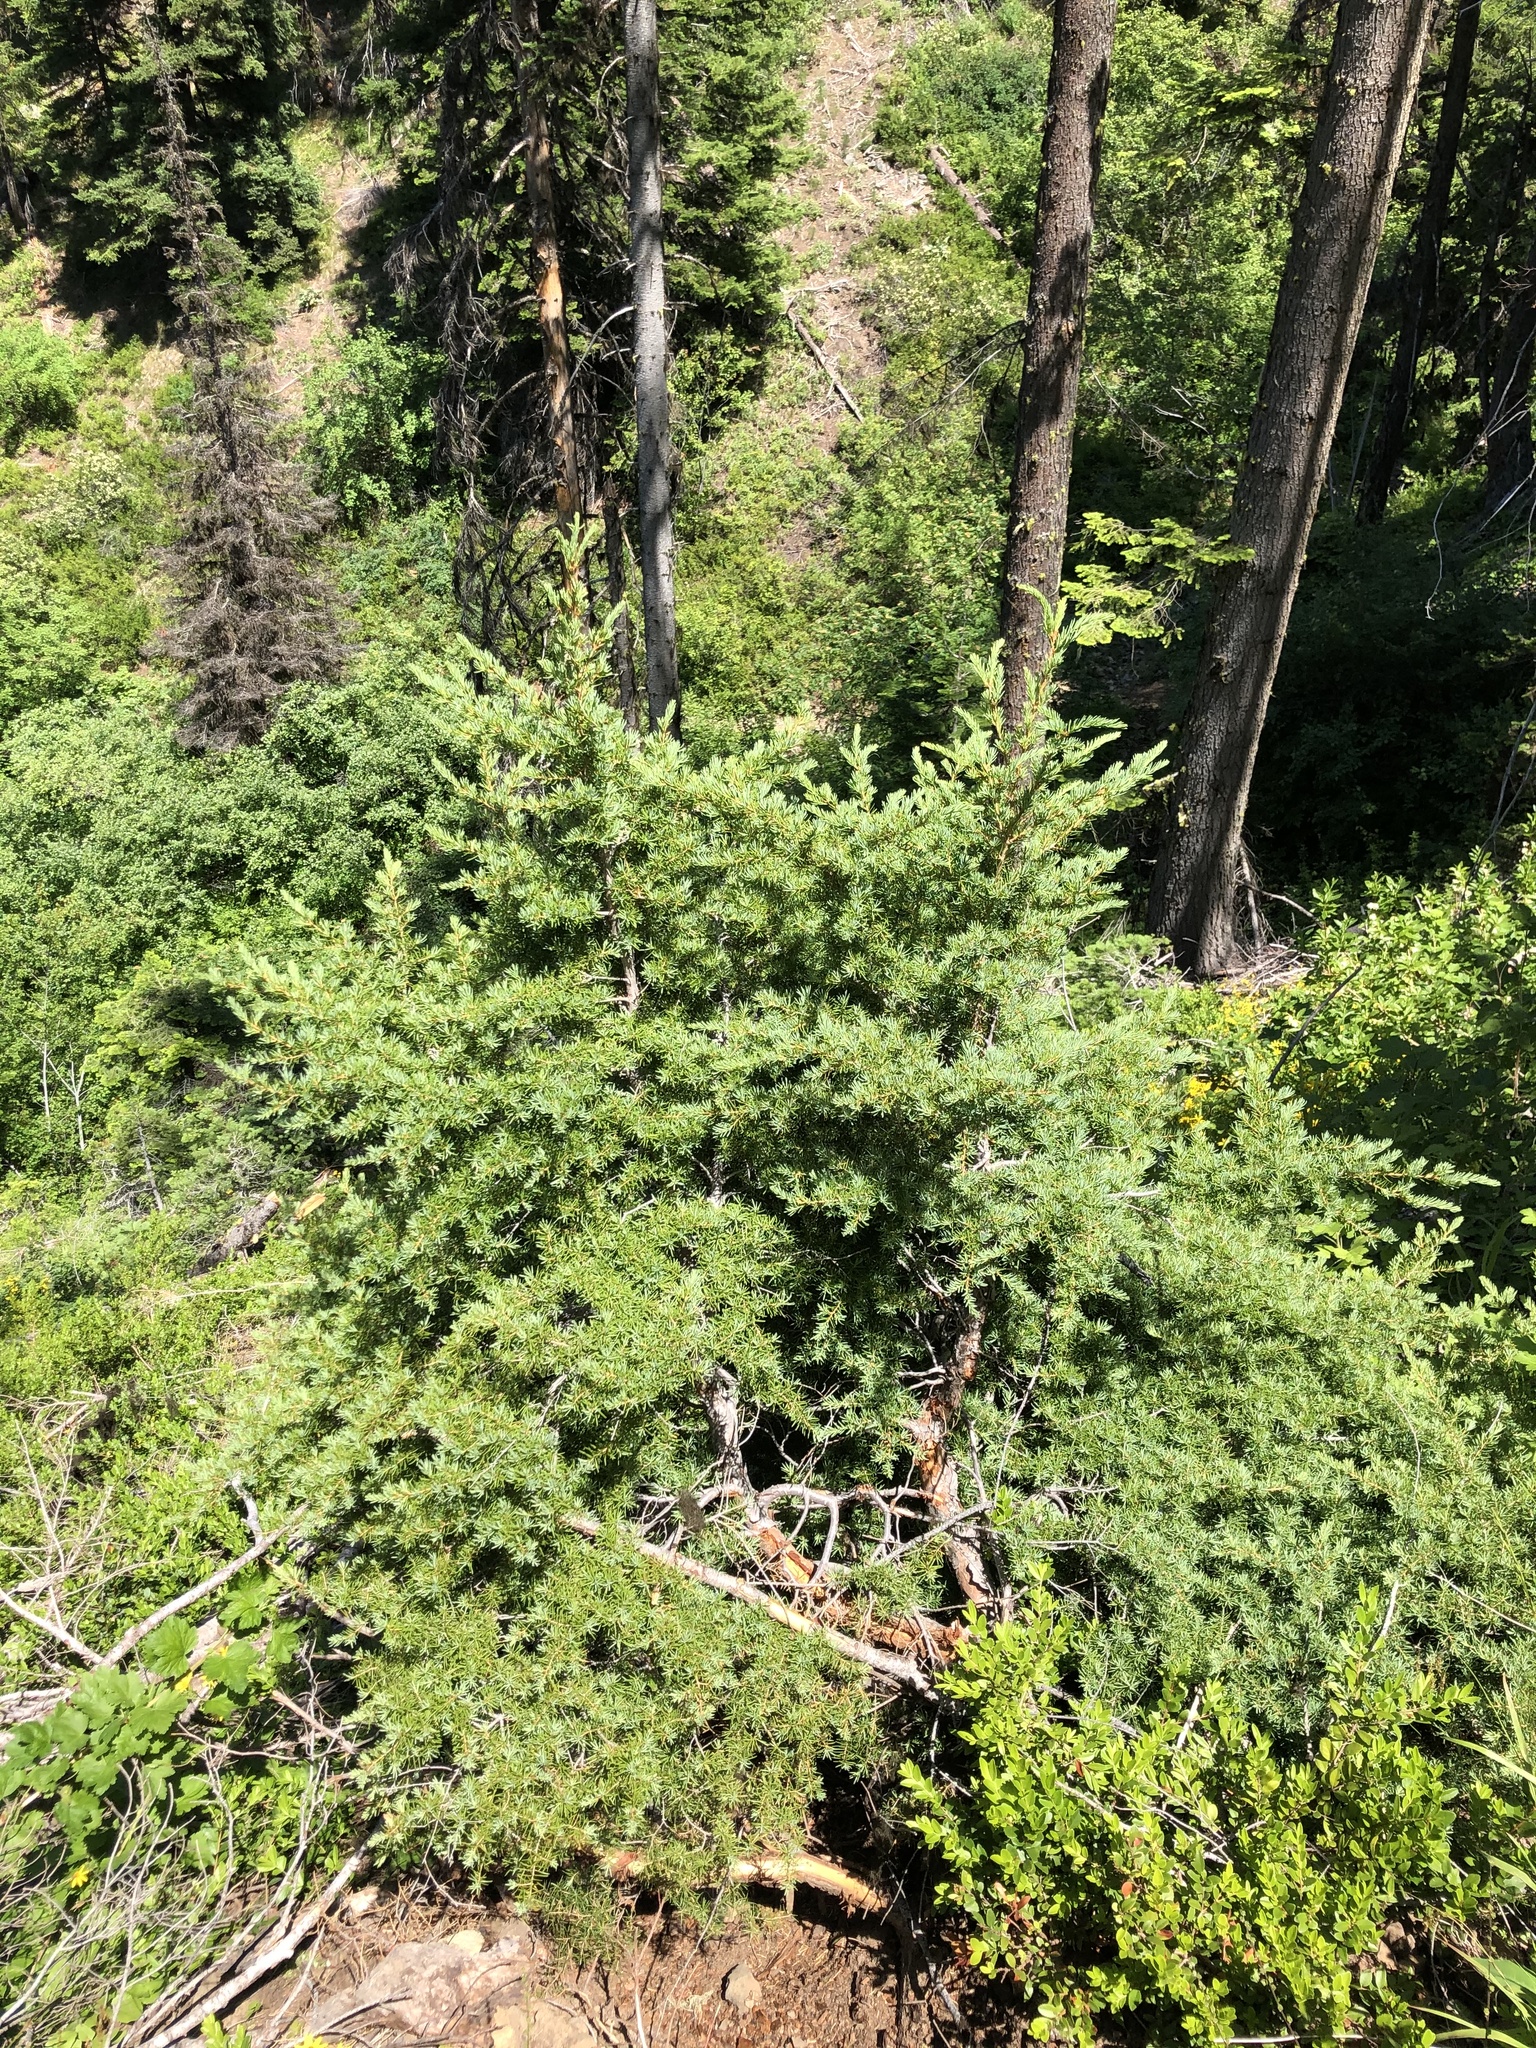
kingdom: Plantae
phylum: Tracheophyta
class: Pinopsida
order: Pinales
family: Pinaceae
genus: Tsuga
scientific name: Tsuga mertensiana
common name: Mountain hemlock
